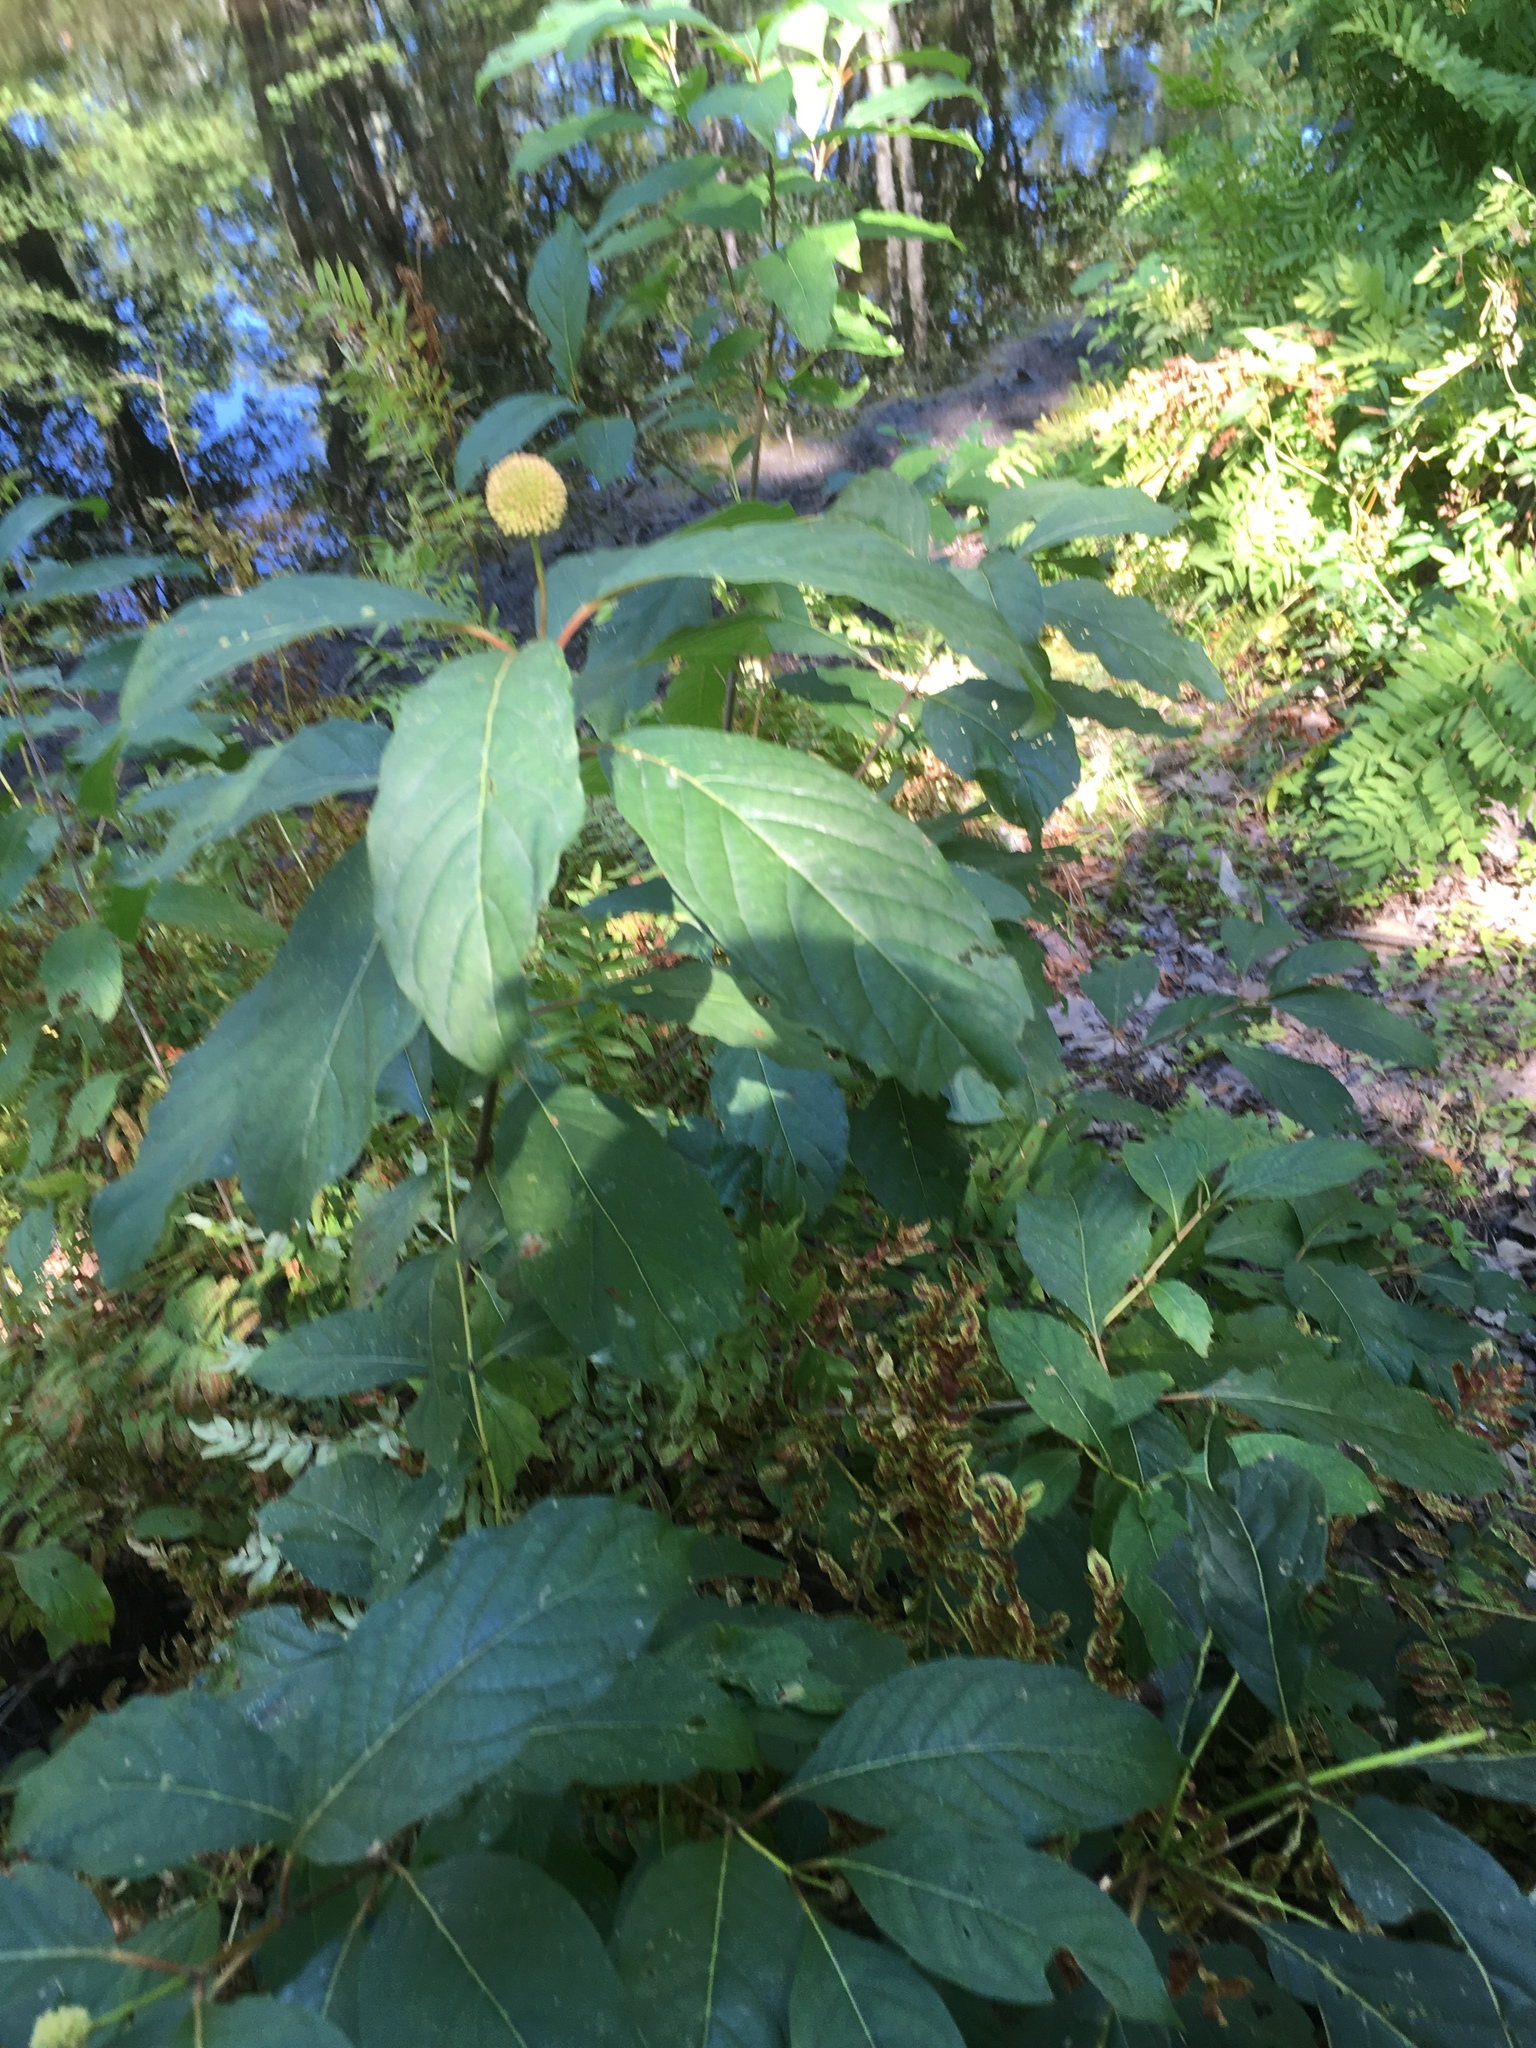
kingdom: Plantae
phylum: Tracheophyta
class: Magnoliopsida
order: Gentianales
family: Rubiaceae
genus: Cephalanthus
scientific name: Cephalanthus occidentalis
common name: Button-willow
